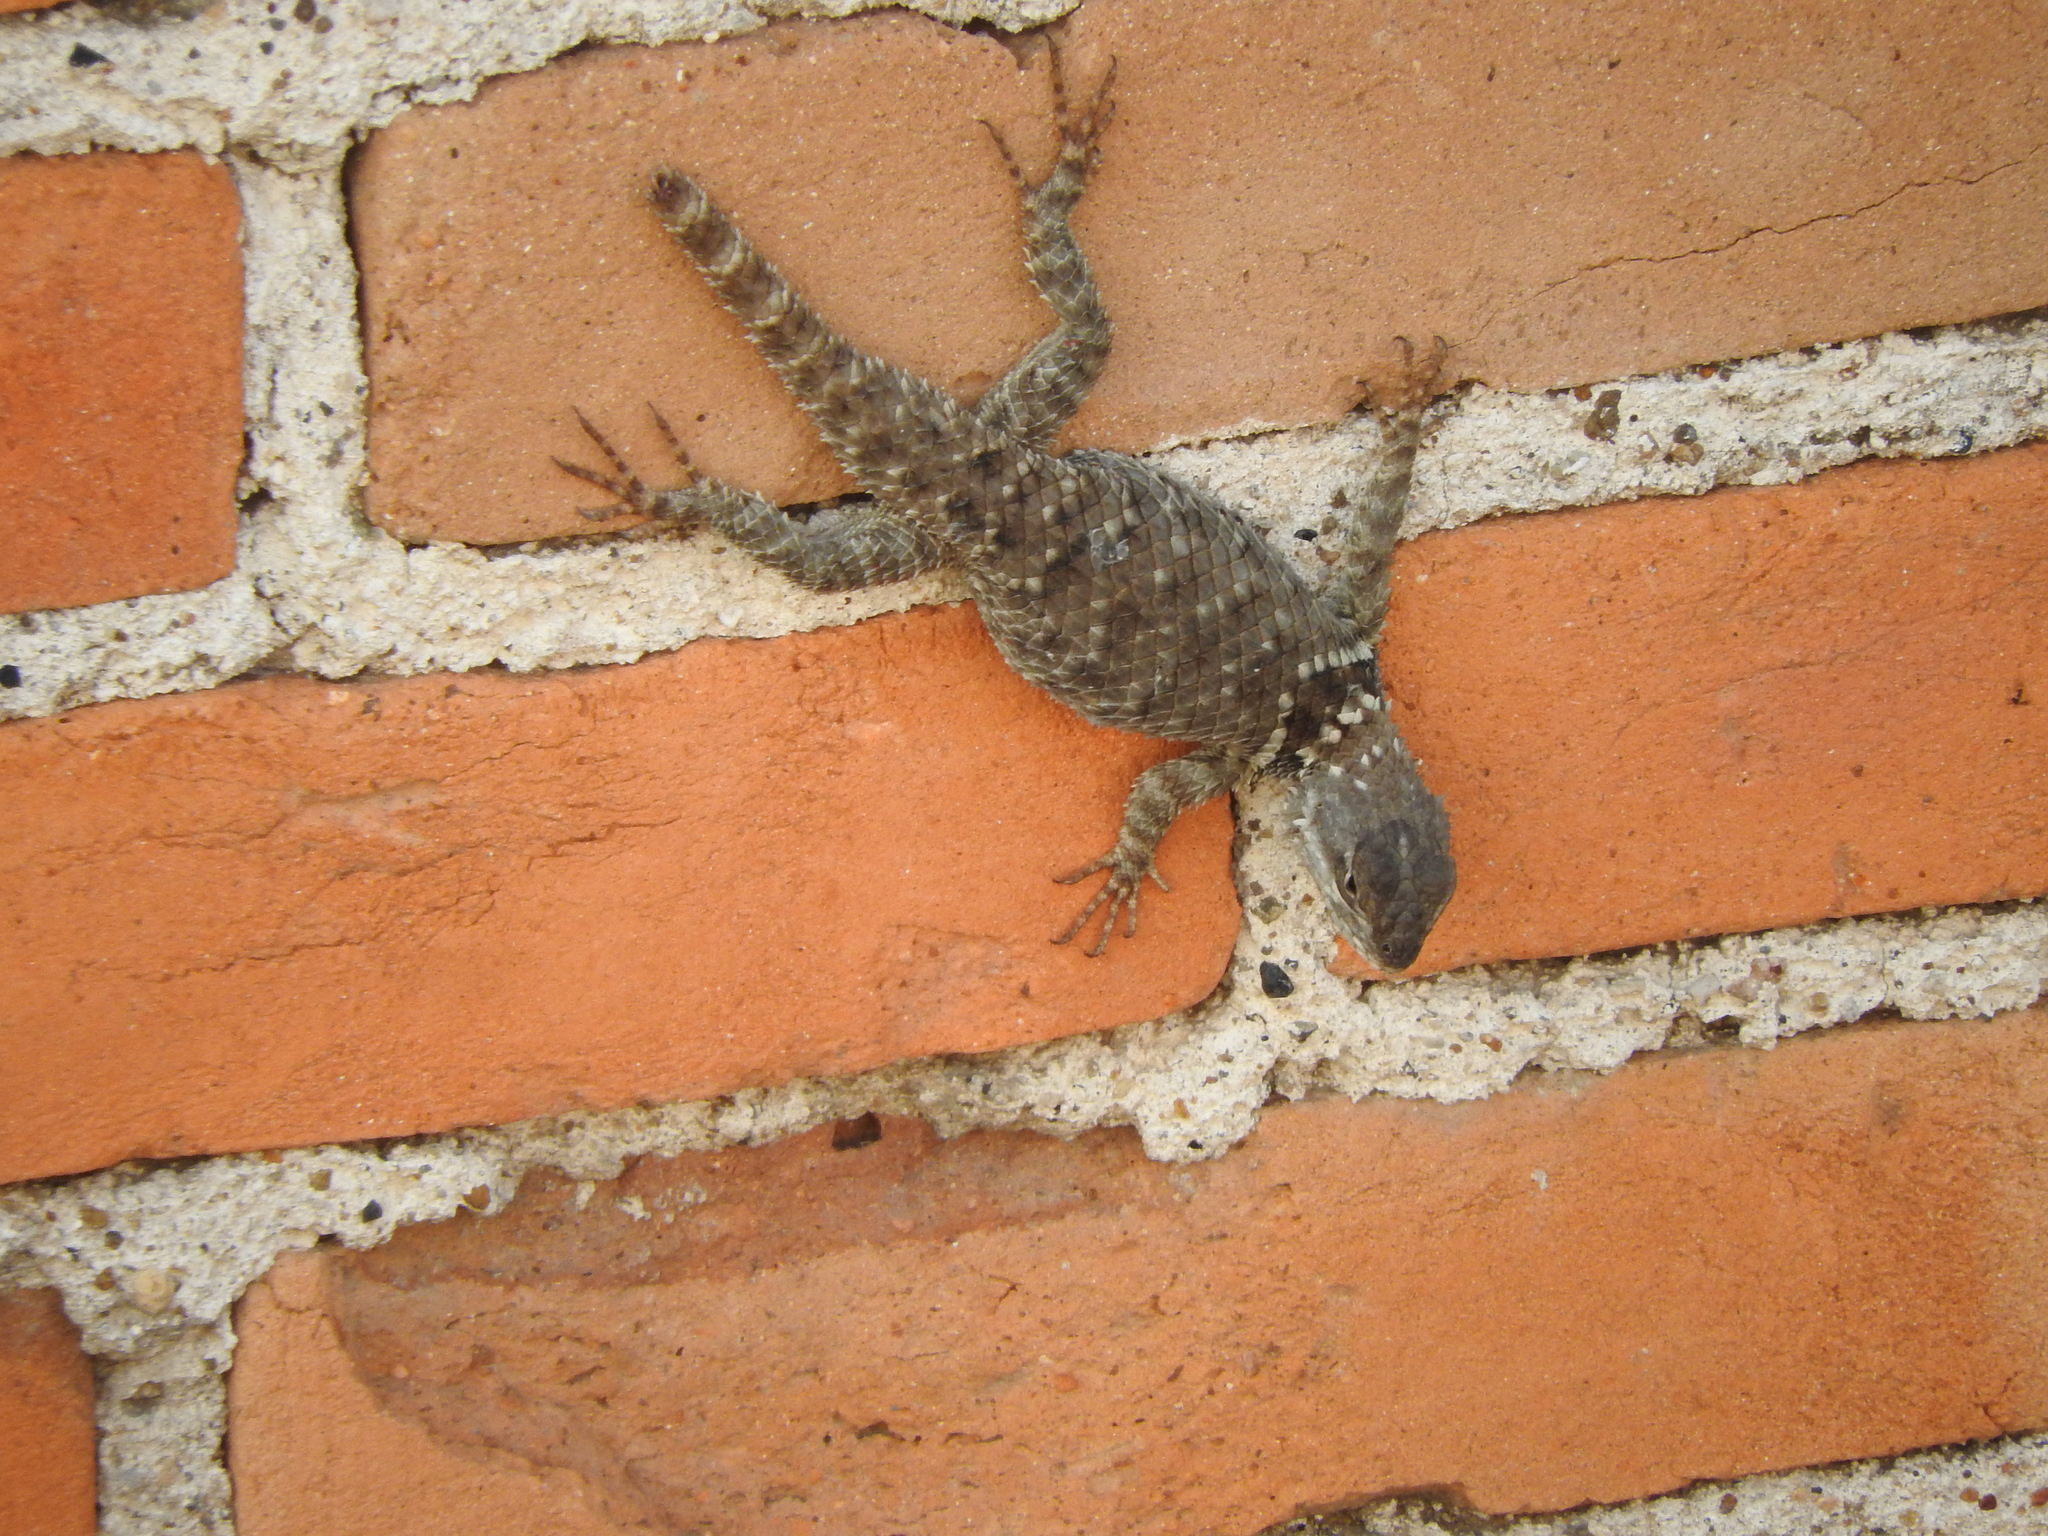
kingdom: Animalia
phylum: Chordata
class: Squamata
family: Phrynosomatidae
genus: Sceloporus
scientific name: Sceloporus torquatus
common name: Central plateau torquate lizard [melanogaster]
